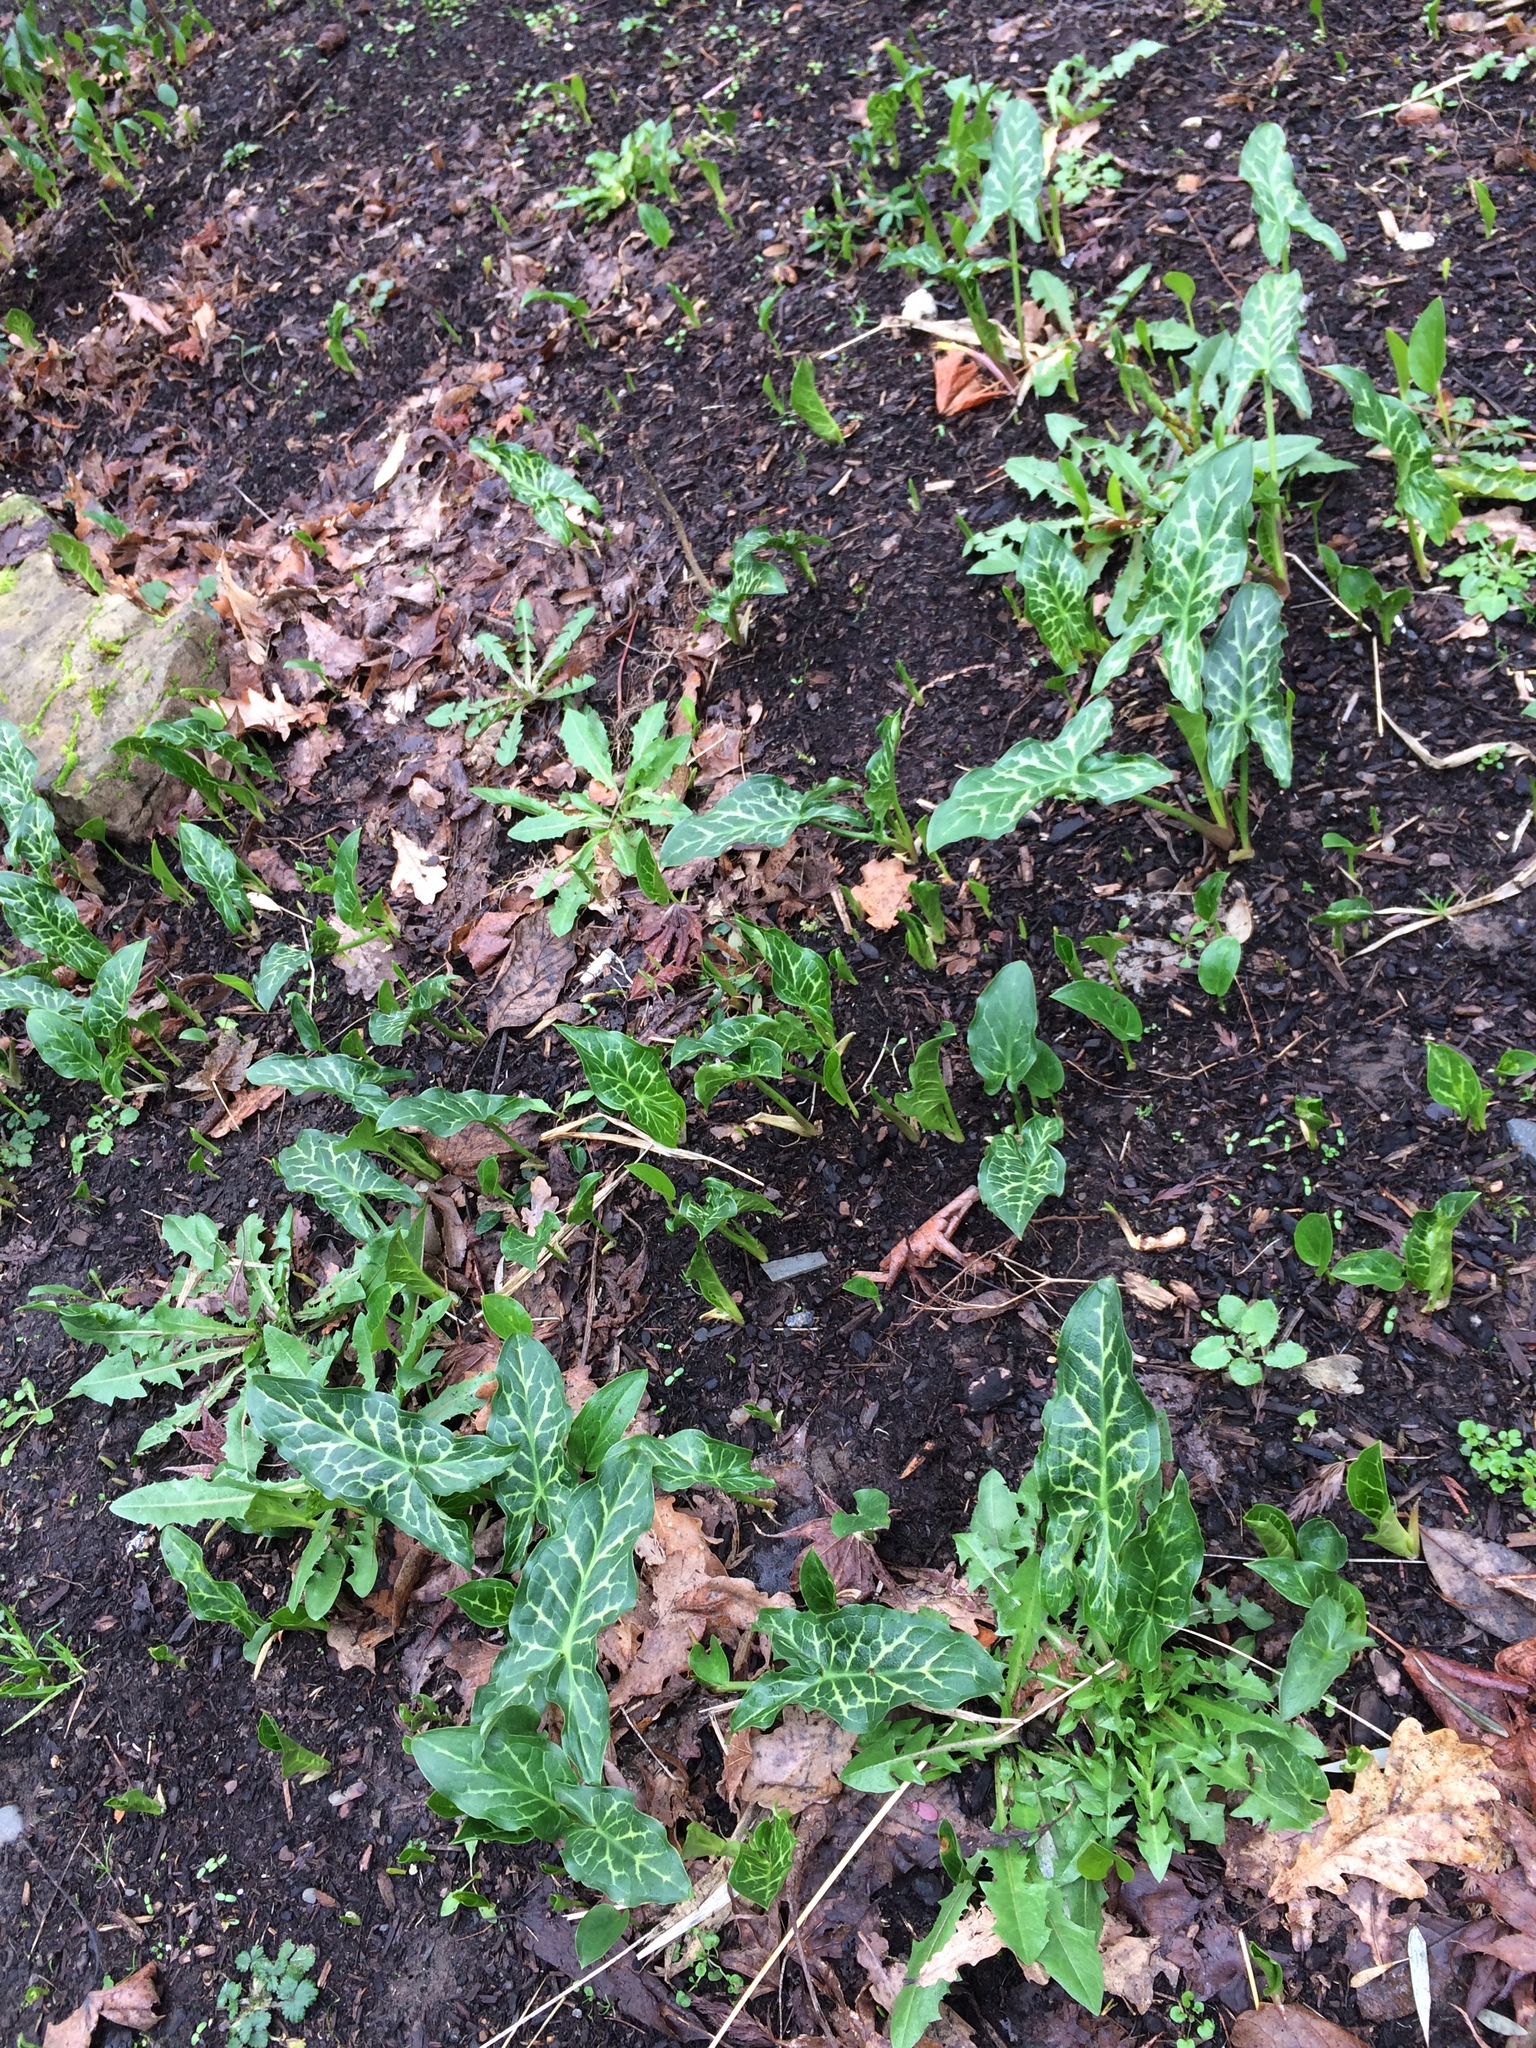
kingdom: Plantae
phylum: Tracheophyta
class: Liliopsida
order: Alismatales
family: Araceae
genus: Arum
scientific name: Arum italicum
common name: Italian lords-and-ladies
